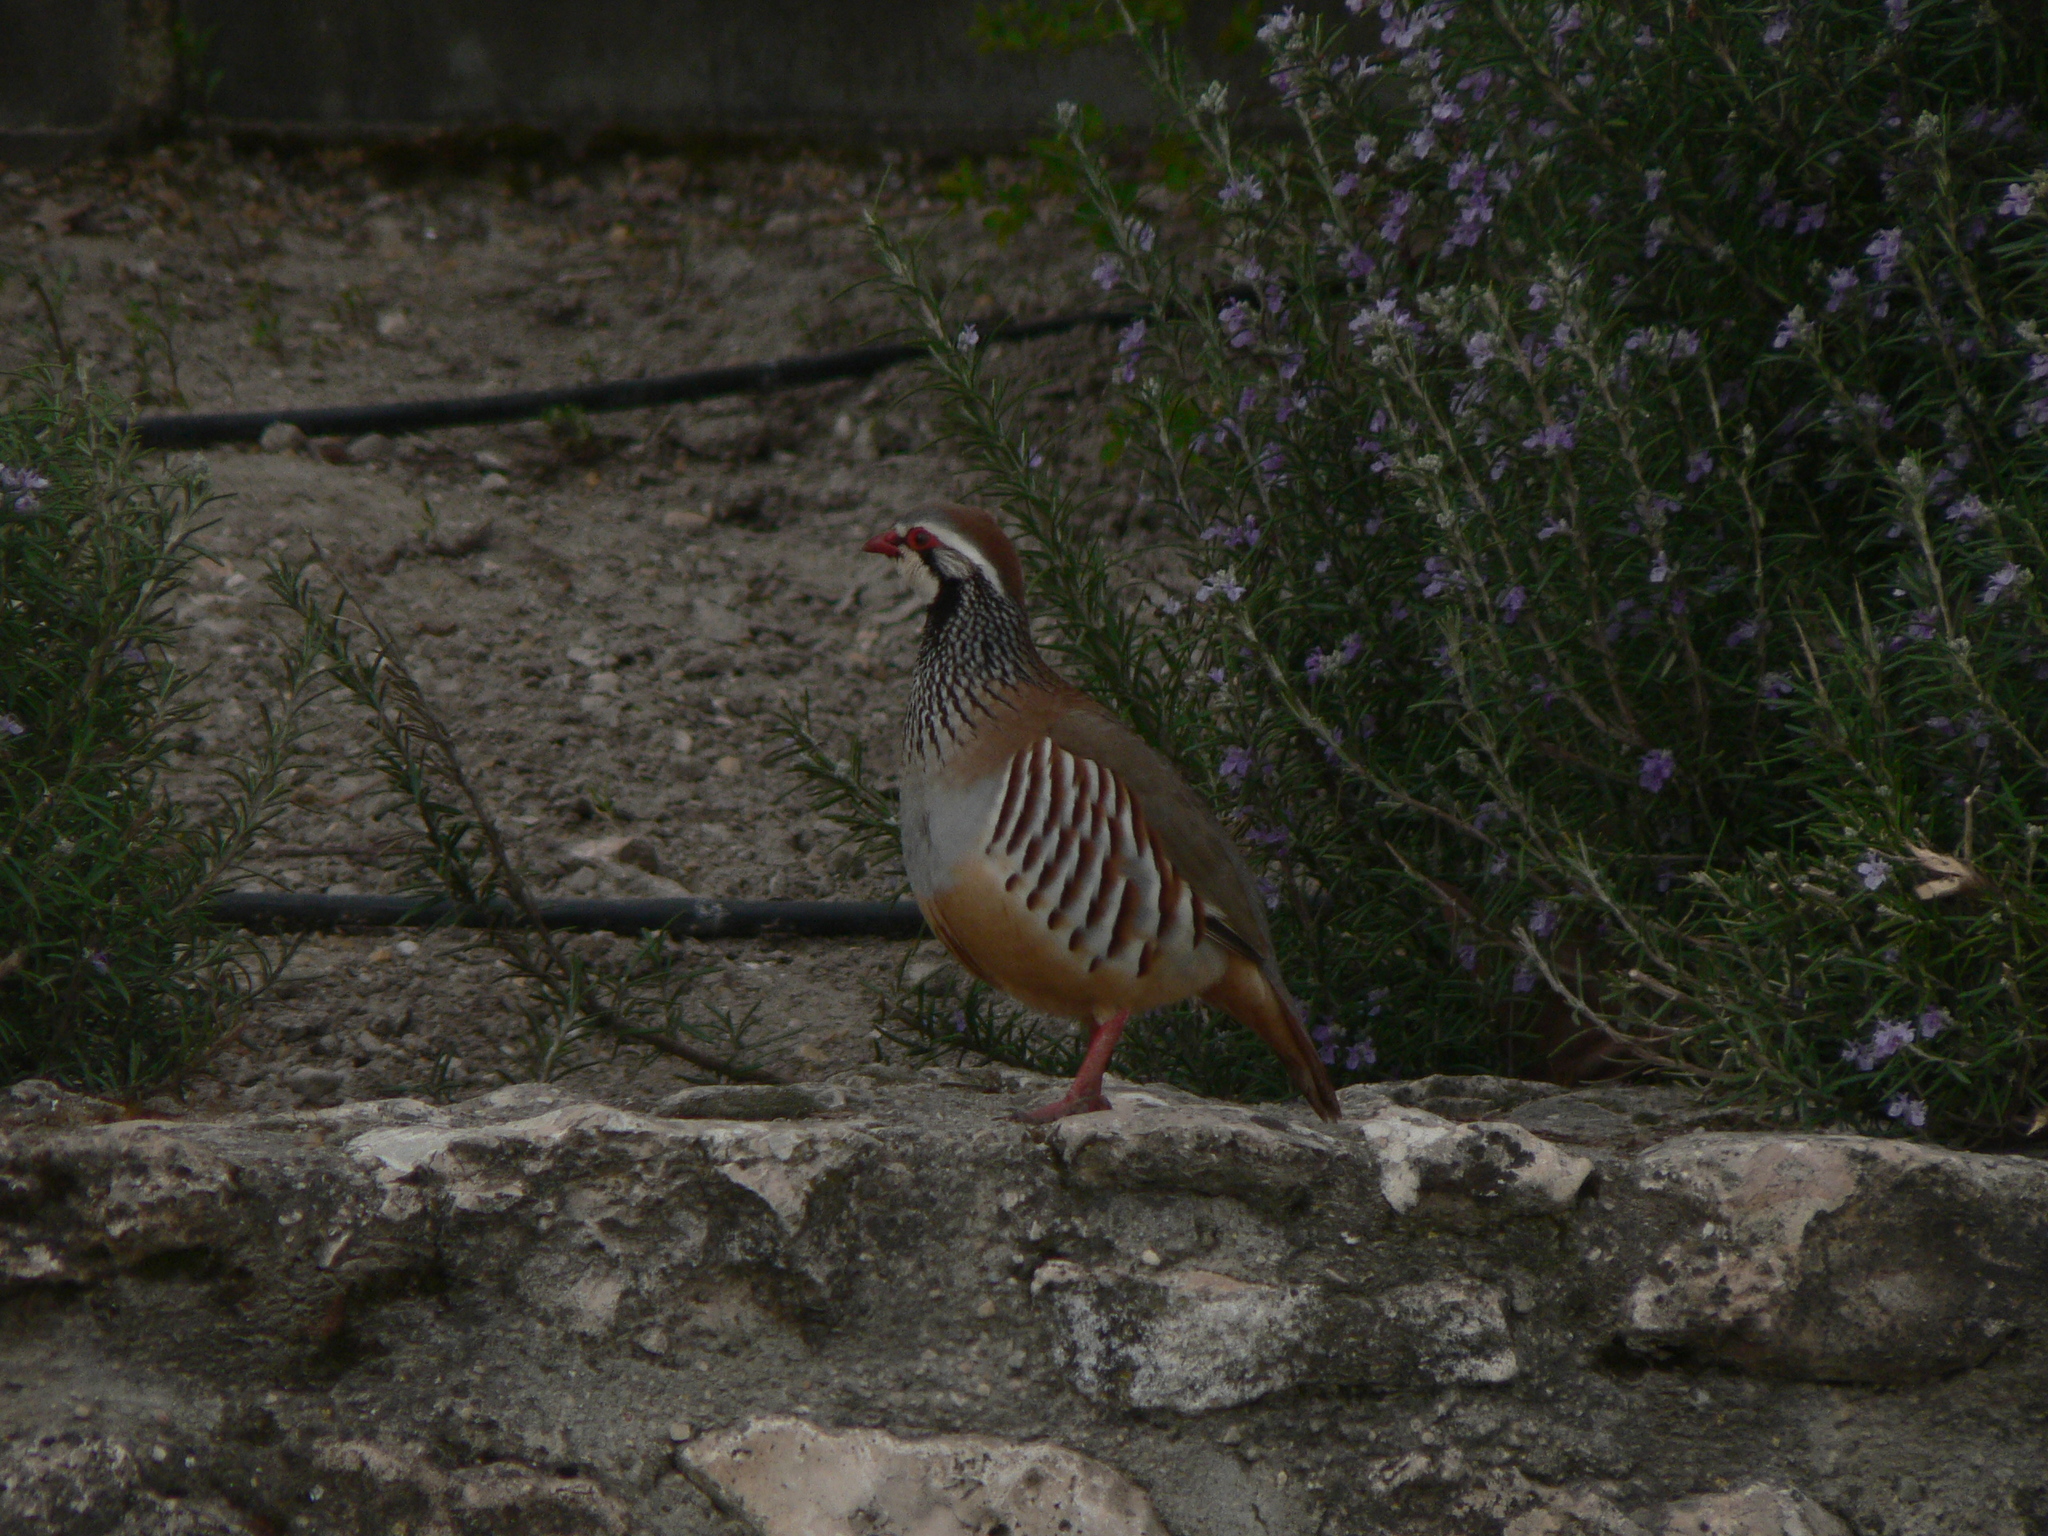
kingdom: Animalia
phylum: Chordata
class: Aves
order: Galliformes
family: Phasianidae
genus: Alectoris
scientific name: Alectoris rufa
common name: Red-legged partridge
